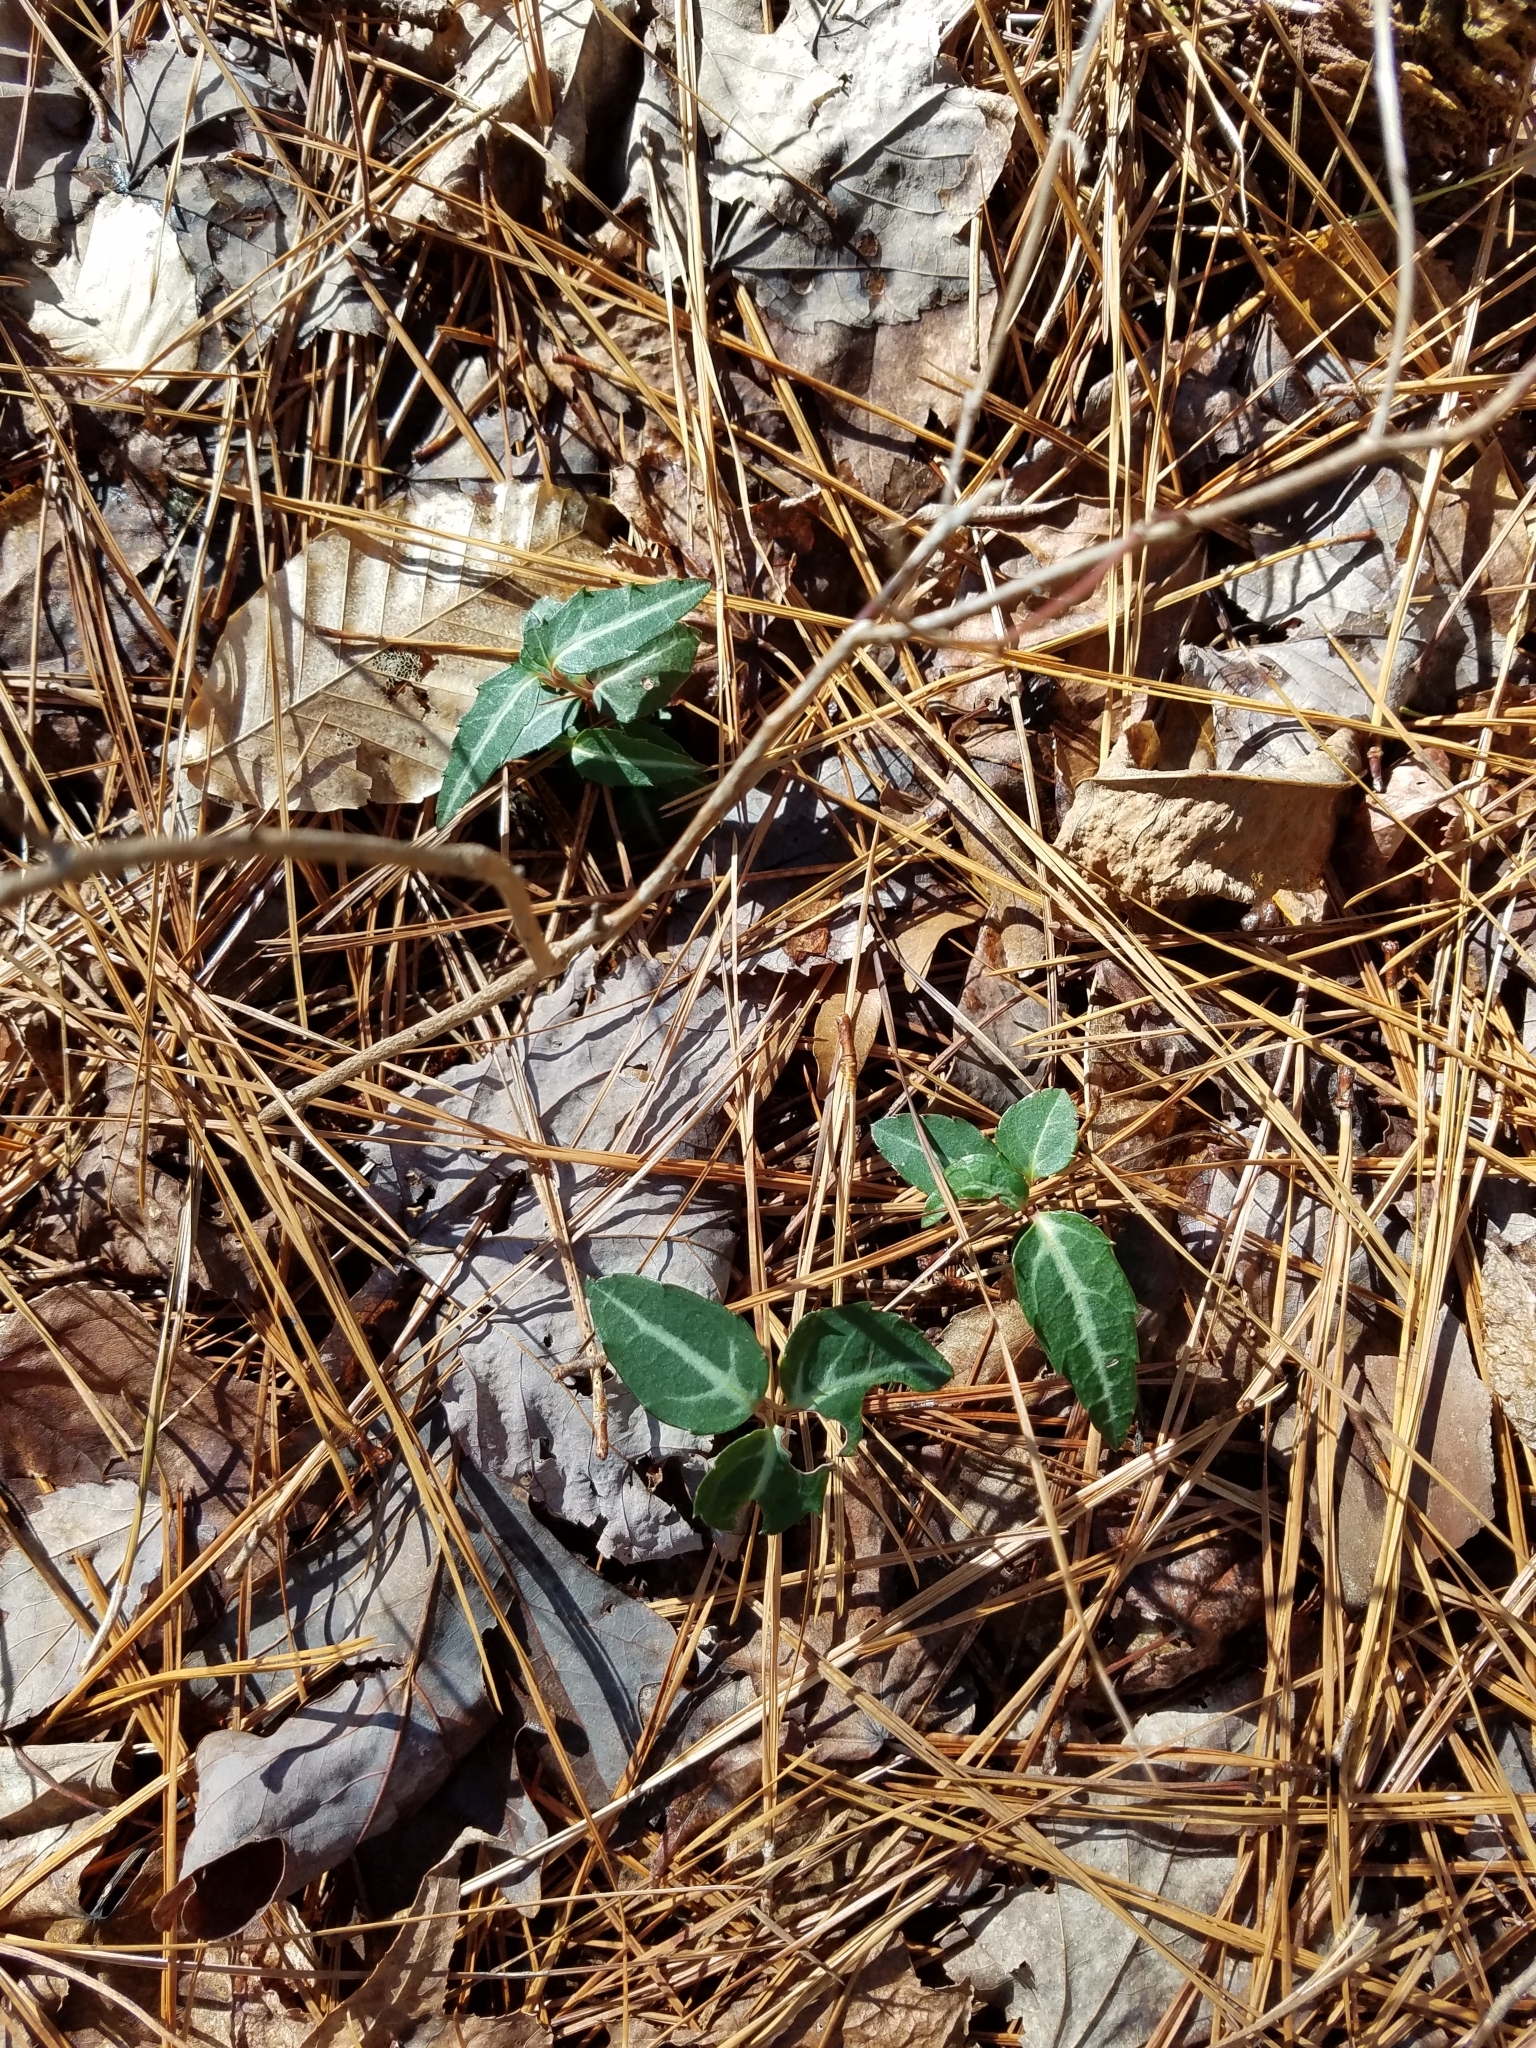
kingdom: Plantae
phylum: Tracheophyta
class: Magnoliopsida
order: Ericales
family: Ericaceae
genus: Chimaphila
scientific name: Chimaphila maculata
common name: Spotted pipsissewa
